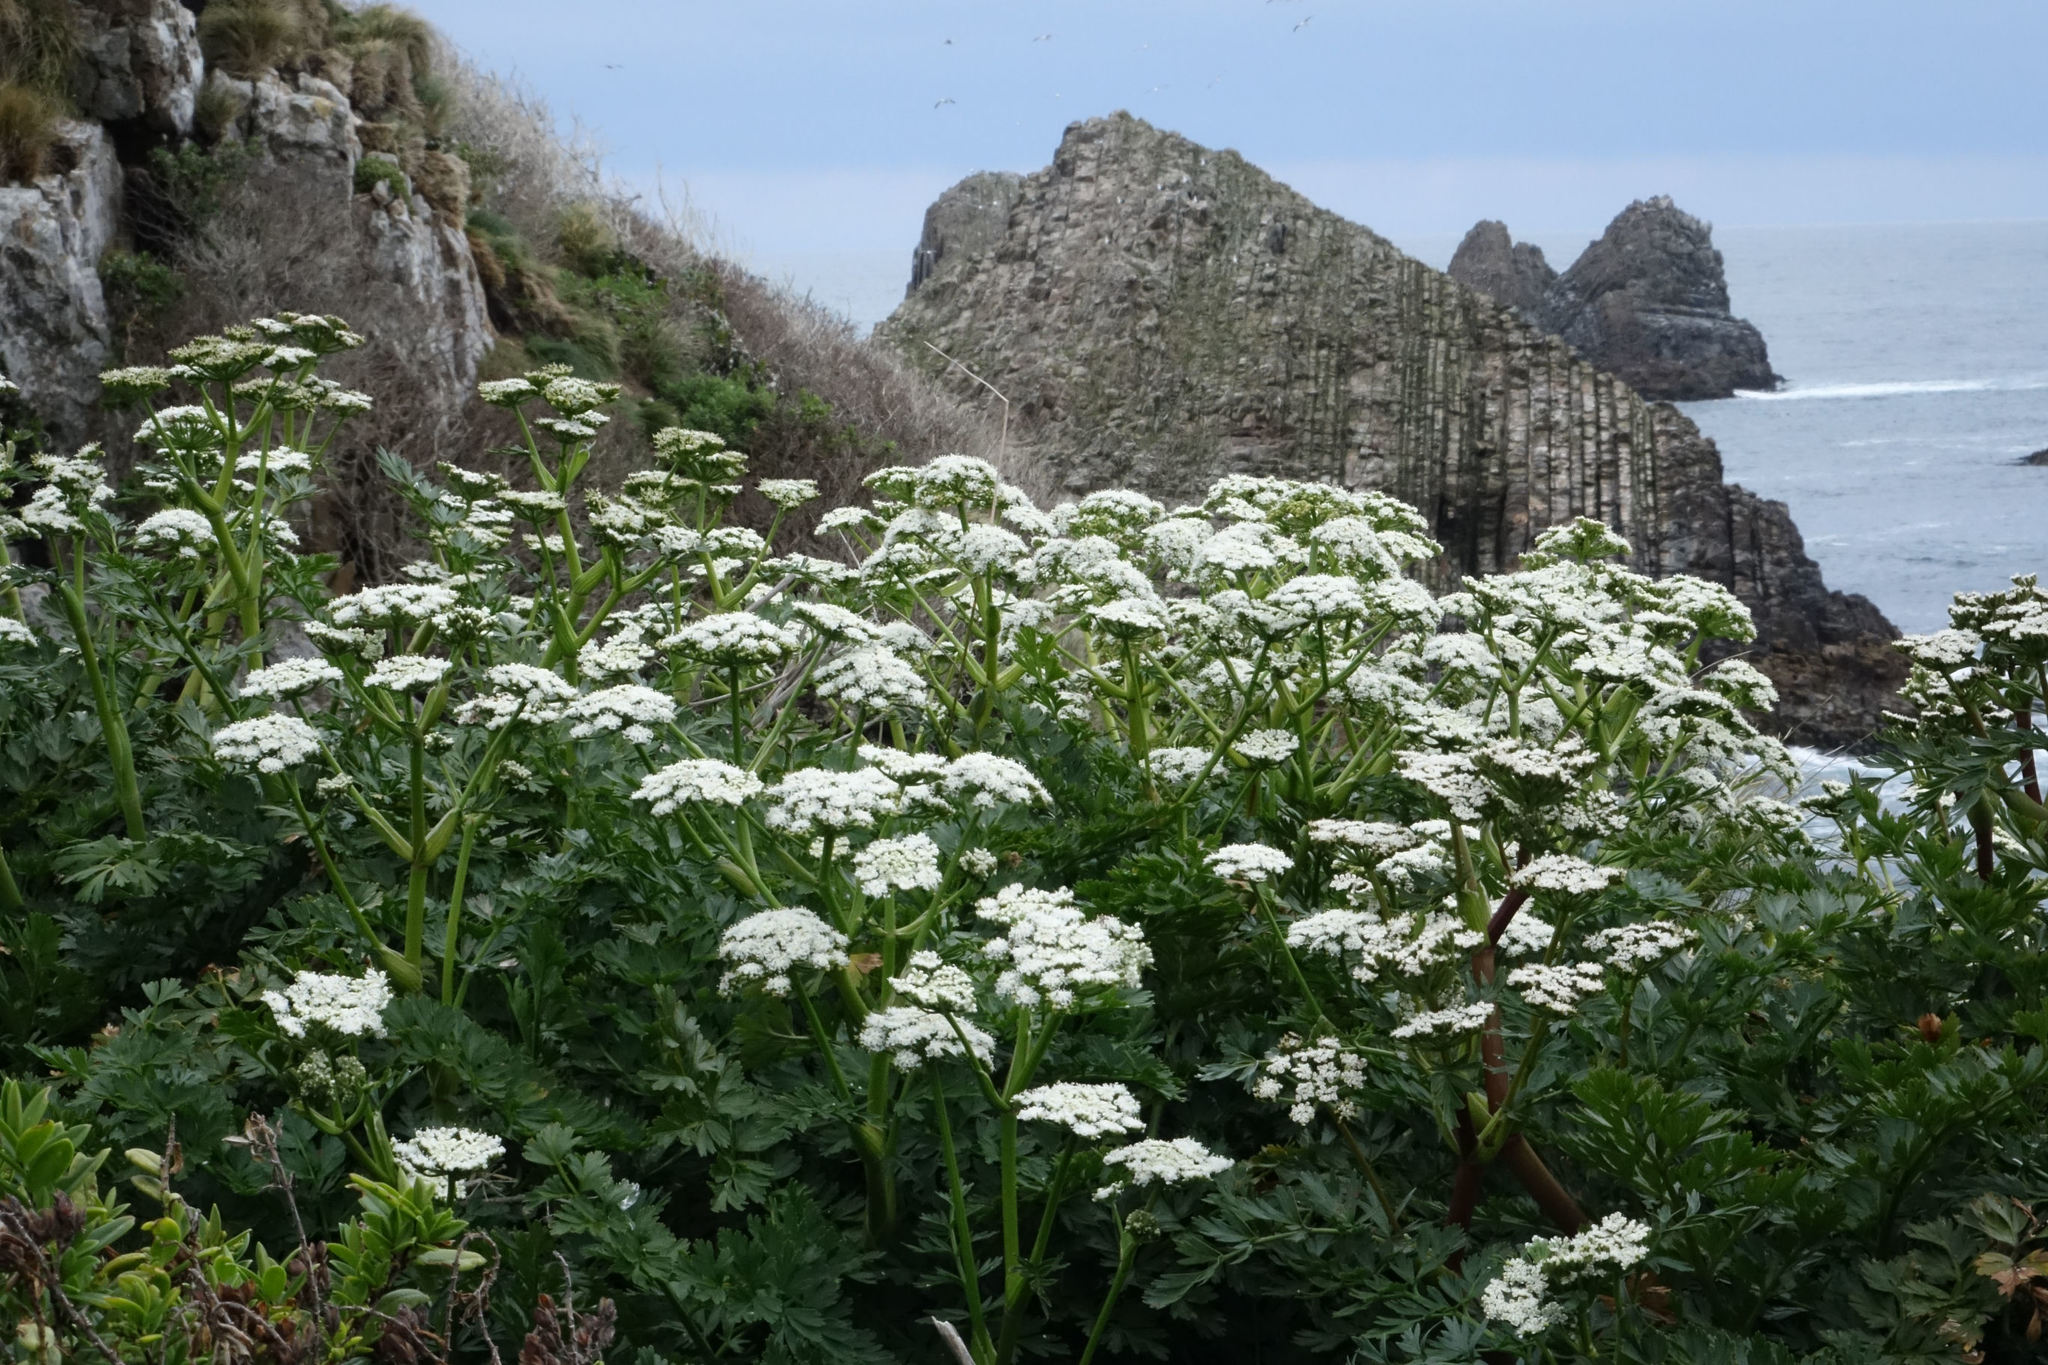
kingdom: Plantae
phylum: Tracheophyta
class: Magnoliopsida
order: Apiales
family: Apiaceae
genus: Anisotome
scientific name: Anisotome lyallii
